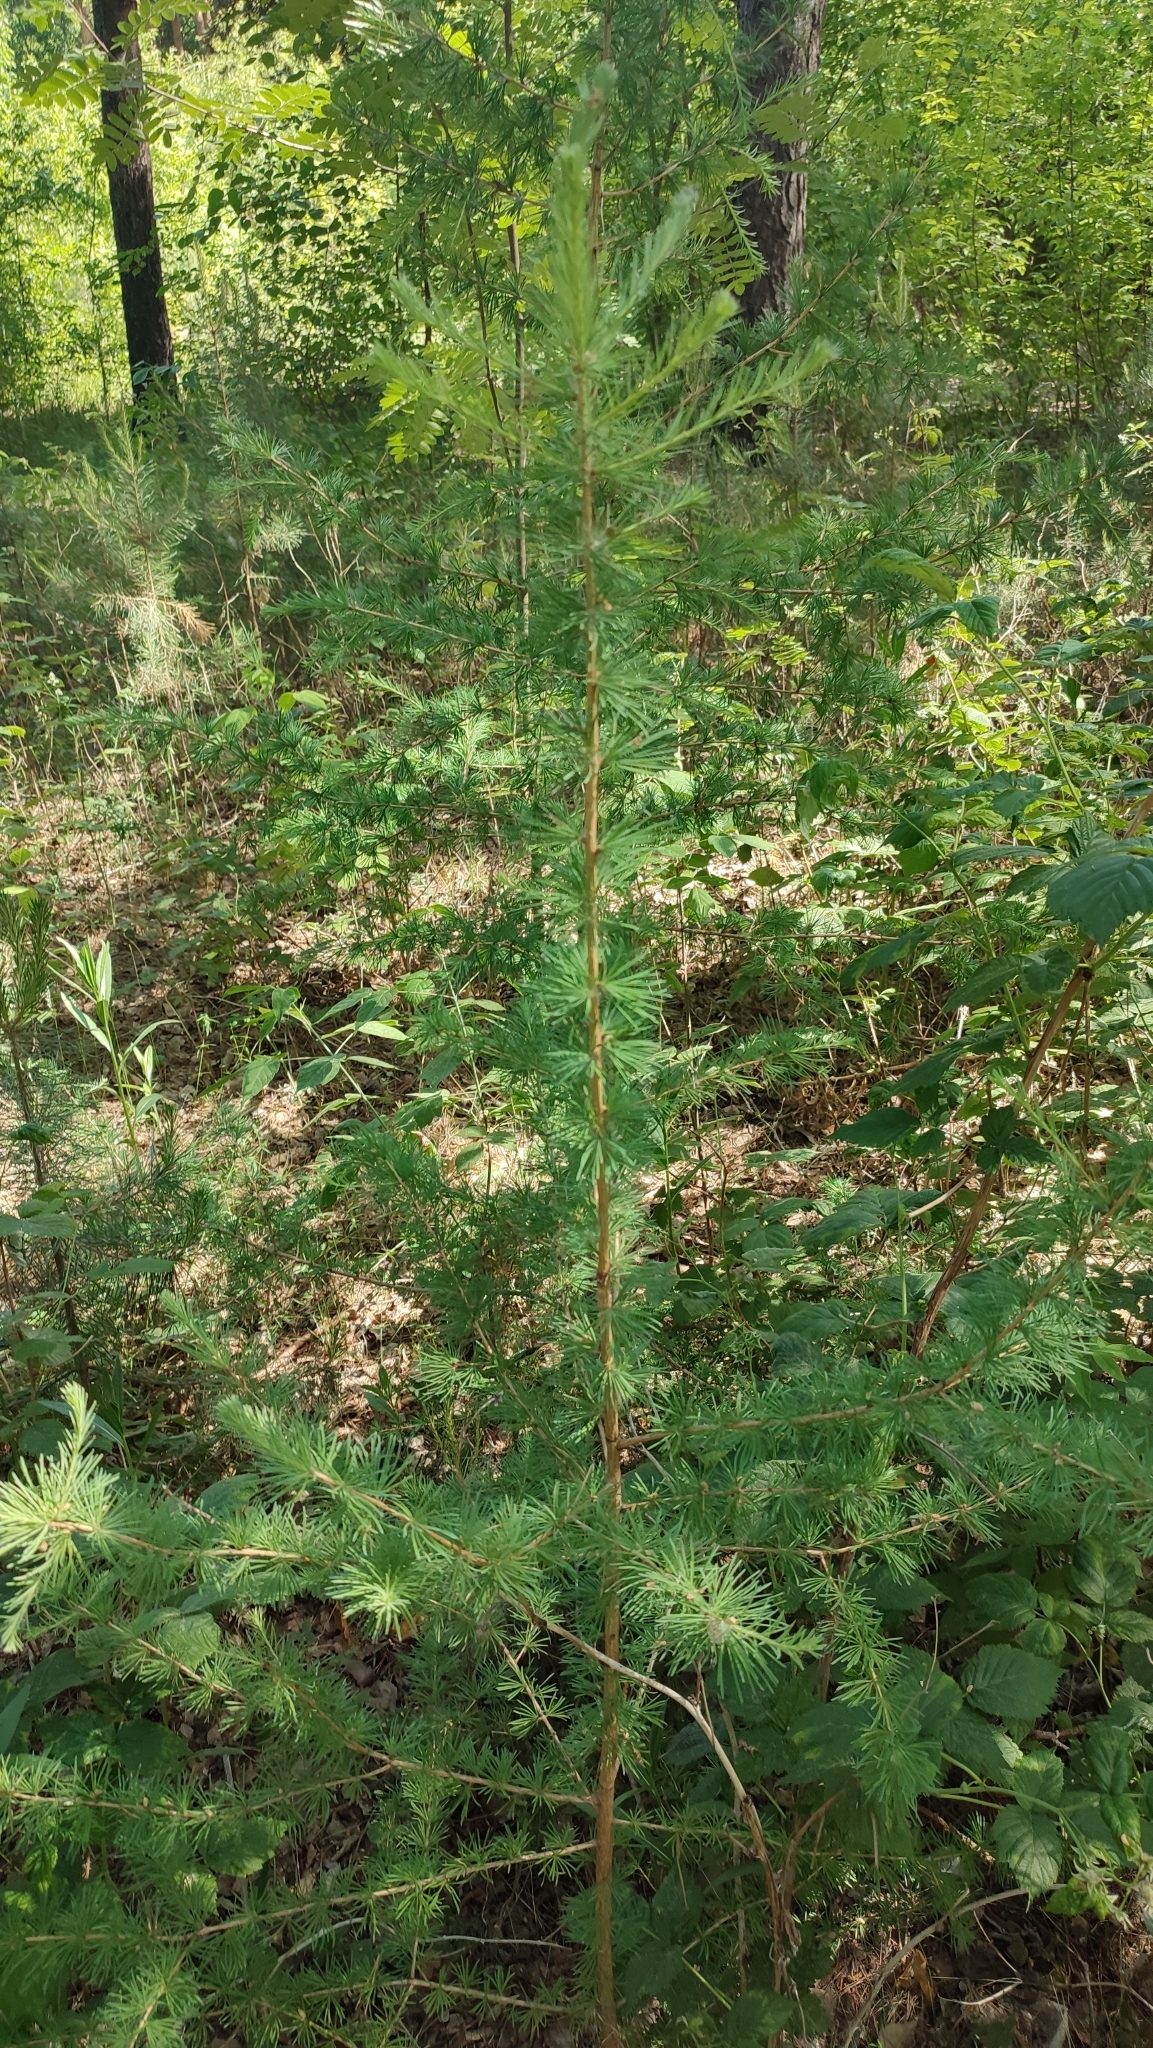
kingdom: Plantae
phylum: Tracheophyta
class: Pinopsida
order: Pinales
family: Pinaceae
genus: Larix
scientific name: Larix sibirica
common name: Siberian larch
